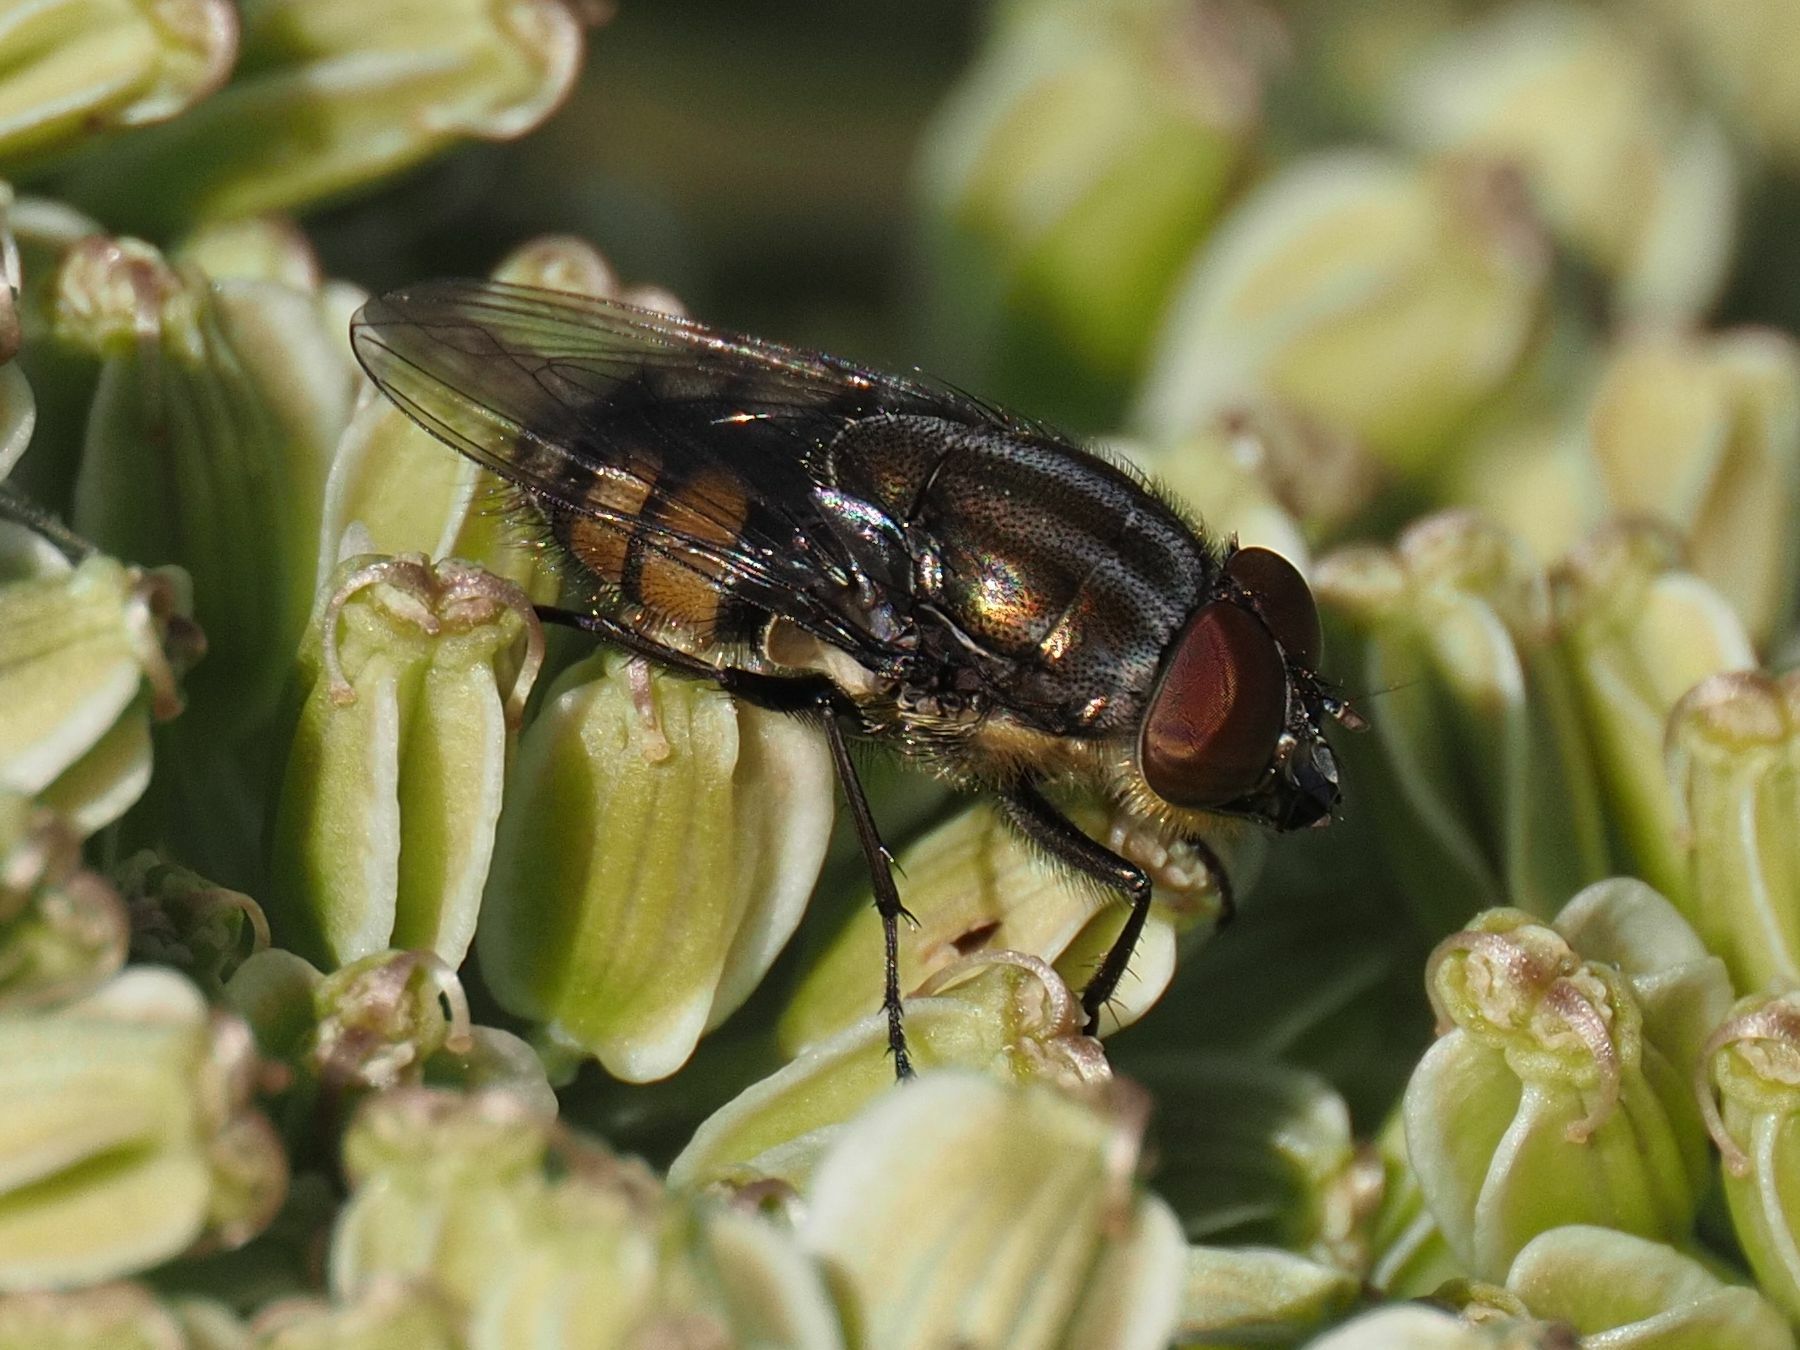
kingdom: Animalia
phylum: Arthropoda
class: Insecta
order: Diptera
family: Calliphoridae
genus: Stomorhina
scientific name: Stomorhina lunata
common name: Locust blowfly
